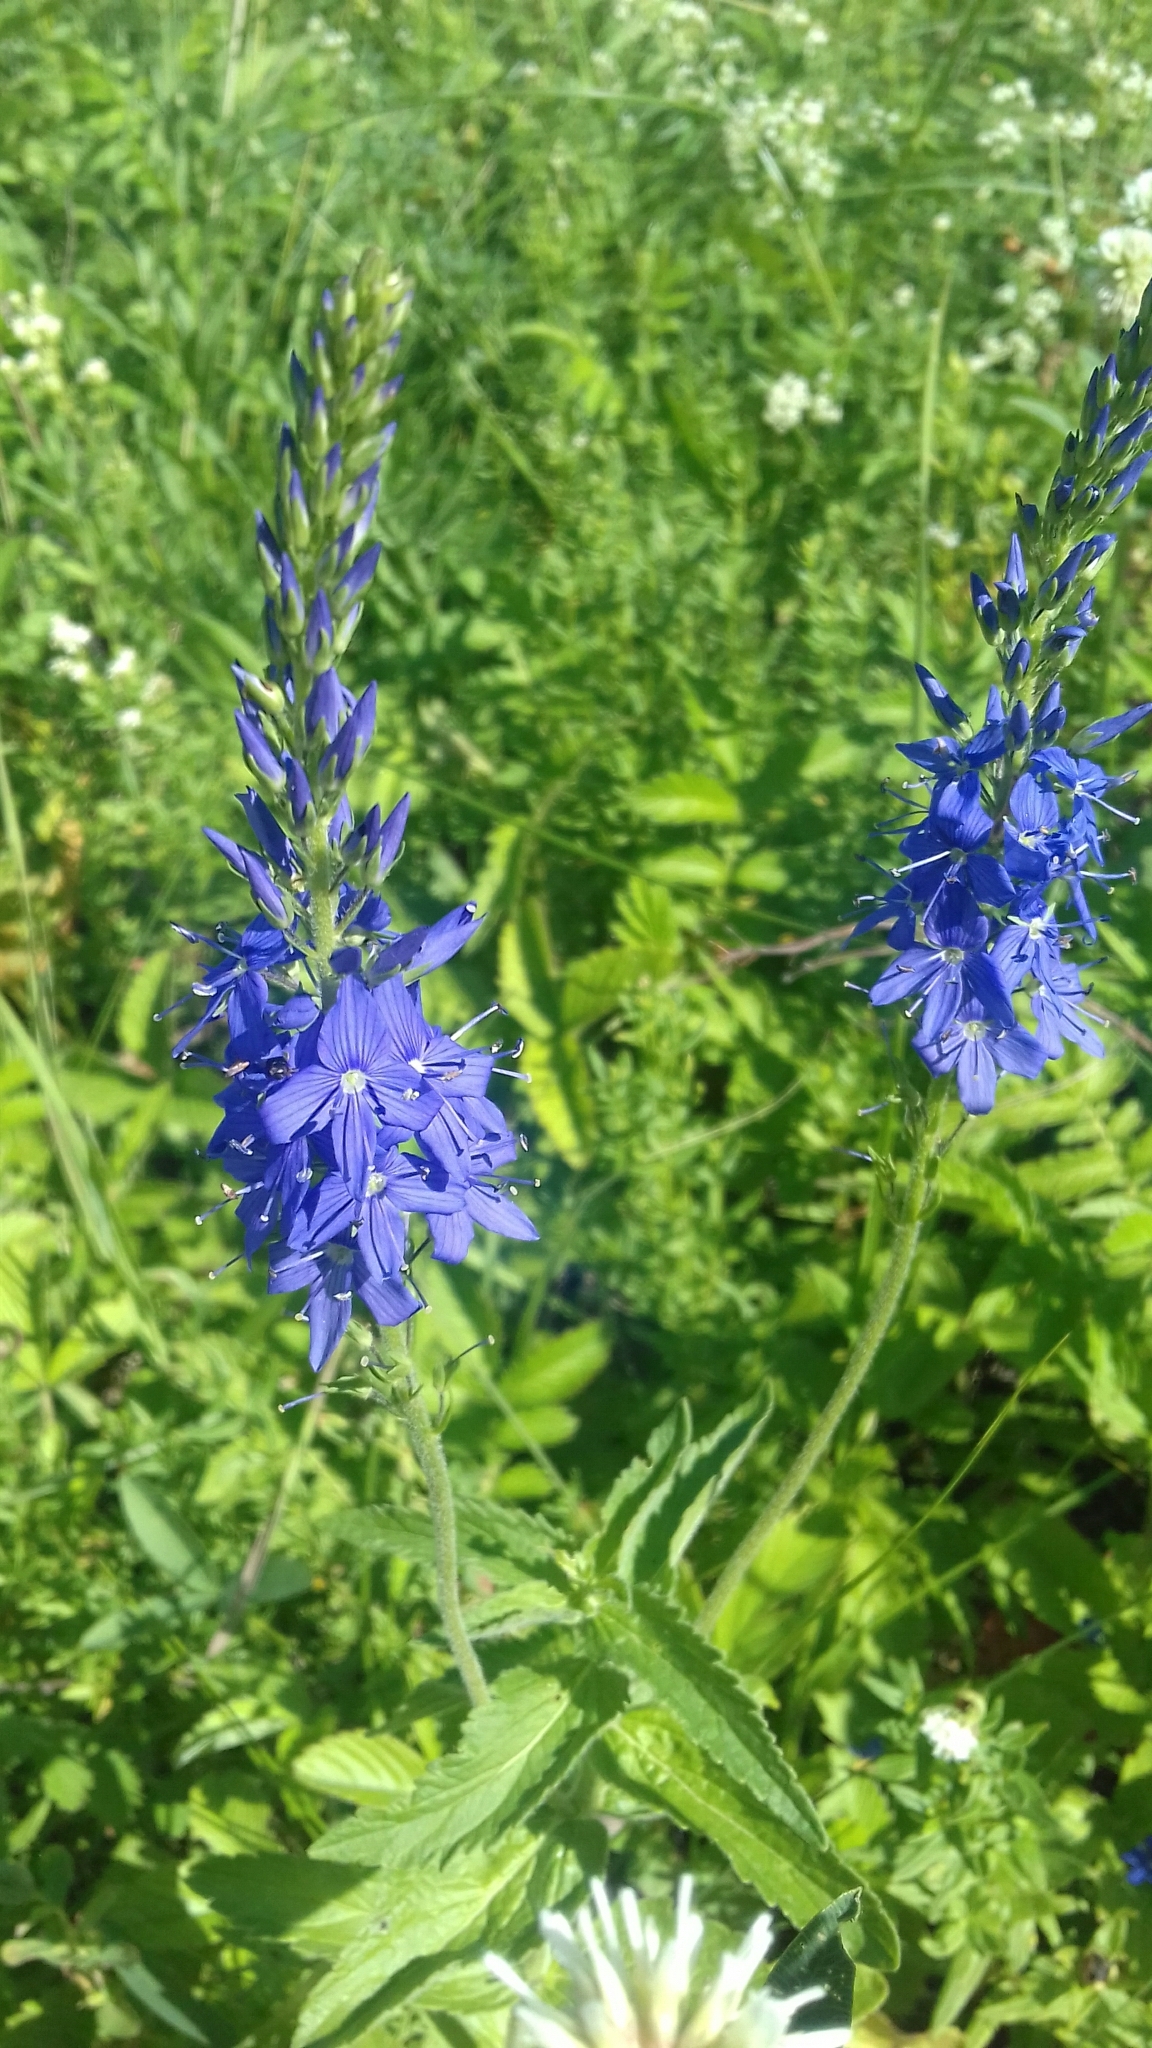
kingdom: Plantae
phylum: Tracheophyta
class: Magnoliopsida
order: Lamiales
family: Plantaginaceae
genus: Veronica
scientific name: Veronica teucrium
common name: Large speedwell
